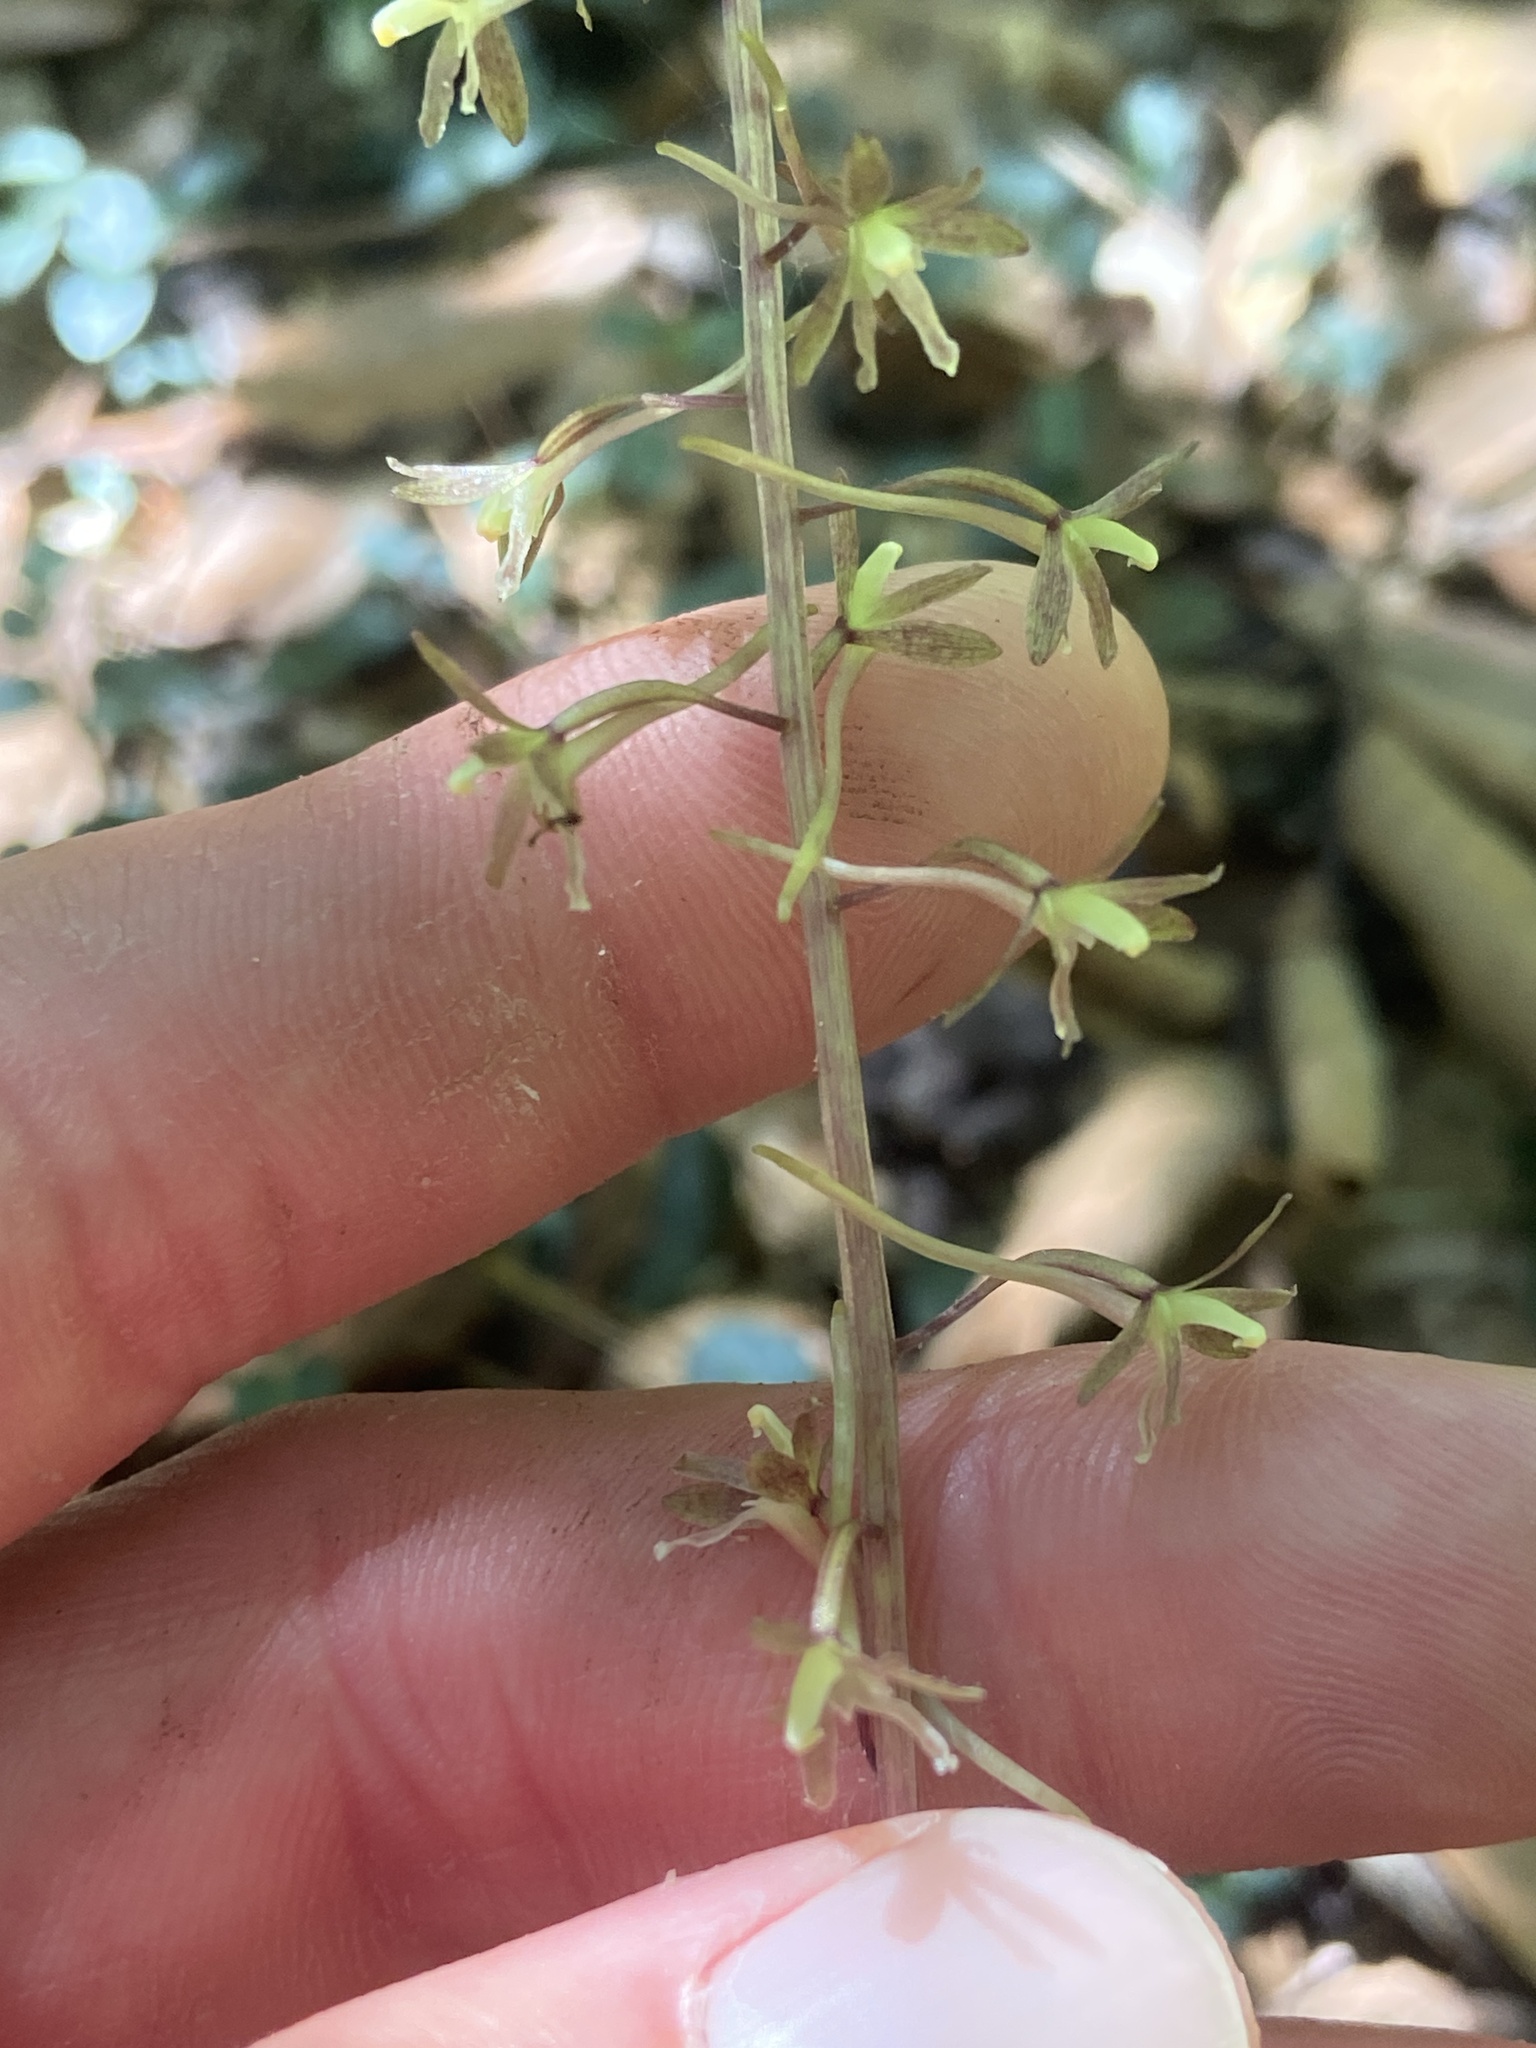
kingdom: Plantae
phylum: Tracheophyta
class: Liliopsida
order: Asparagales
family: Orchidaceae
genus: Tipularia
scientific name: Tipularia discolor
